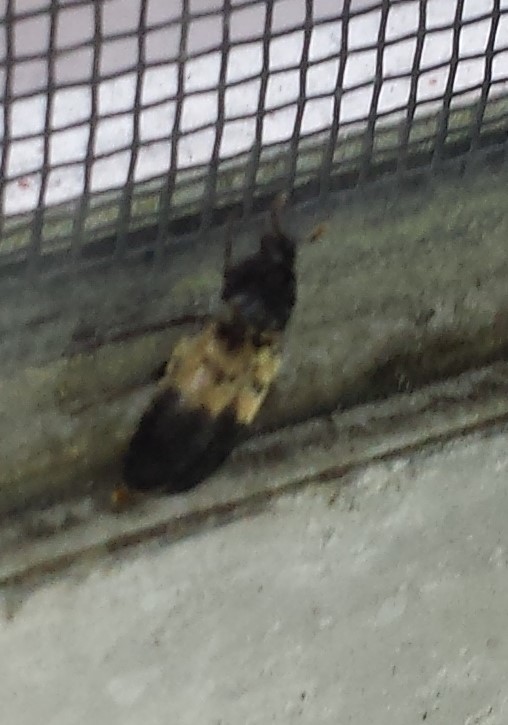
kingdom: Animalia
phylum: Arthropoda
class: Insecta
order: Coleoptera
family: Dermestidae
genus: Dermestes
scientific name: Dermestes lardarius
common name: Larder beetle
